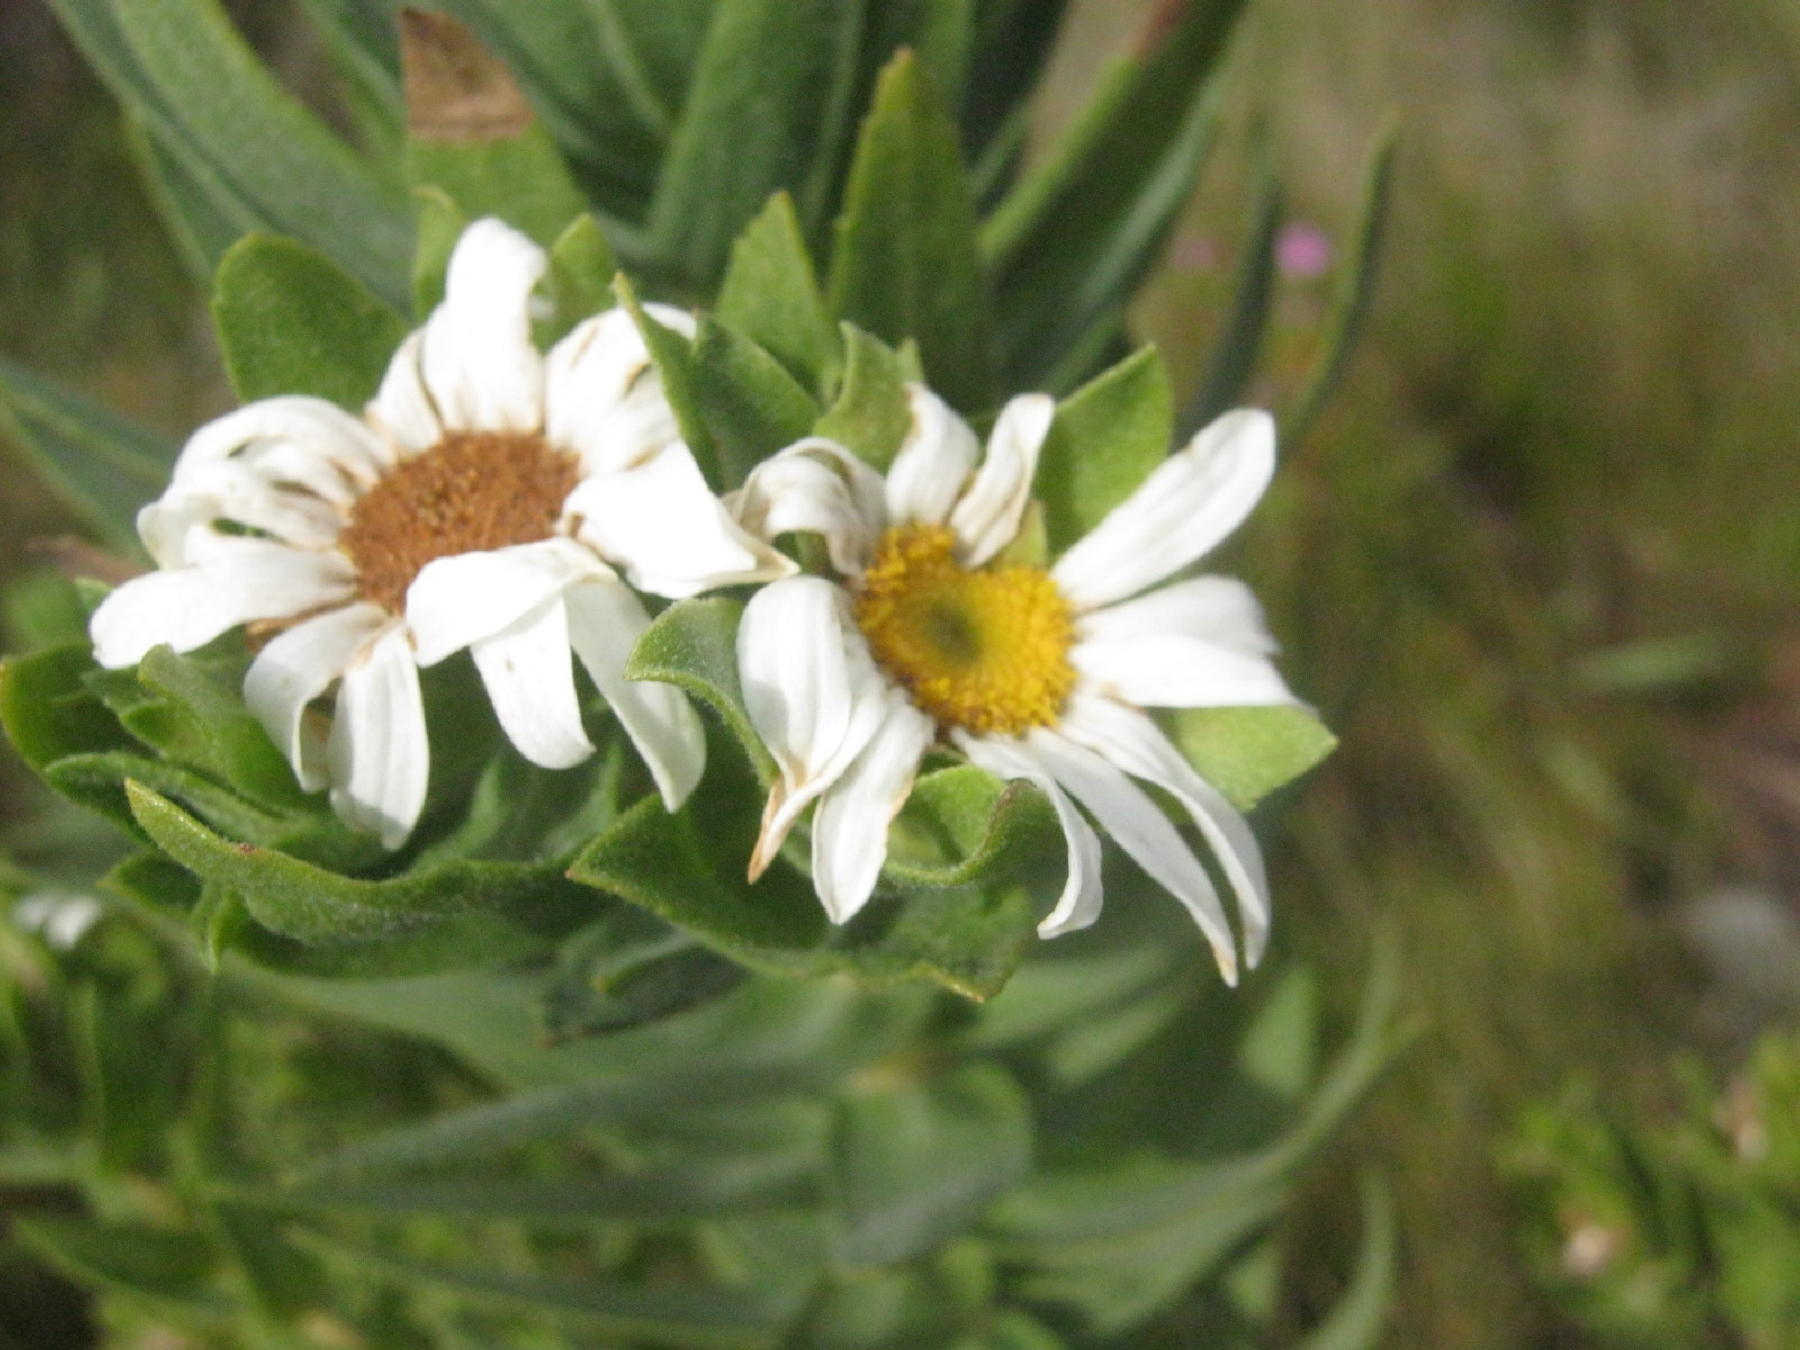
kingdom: Plantae
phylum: Tracheophyta
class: Magnoliopsida
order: Asterales
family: Asteraceae
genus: Osmitopsis
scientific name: Osmitopsis asteriscoides
